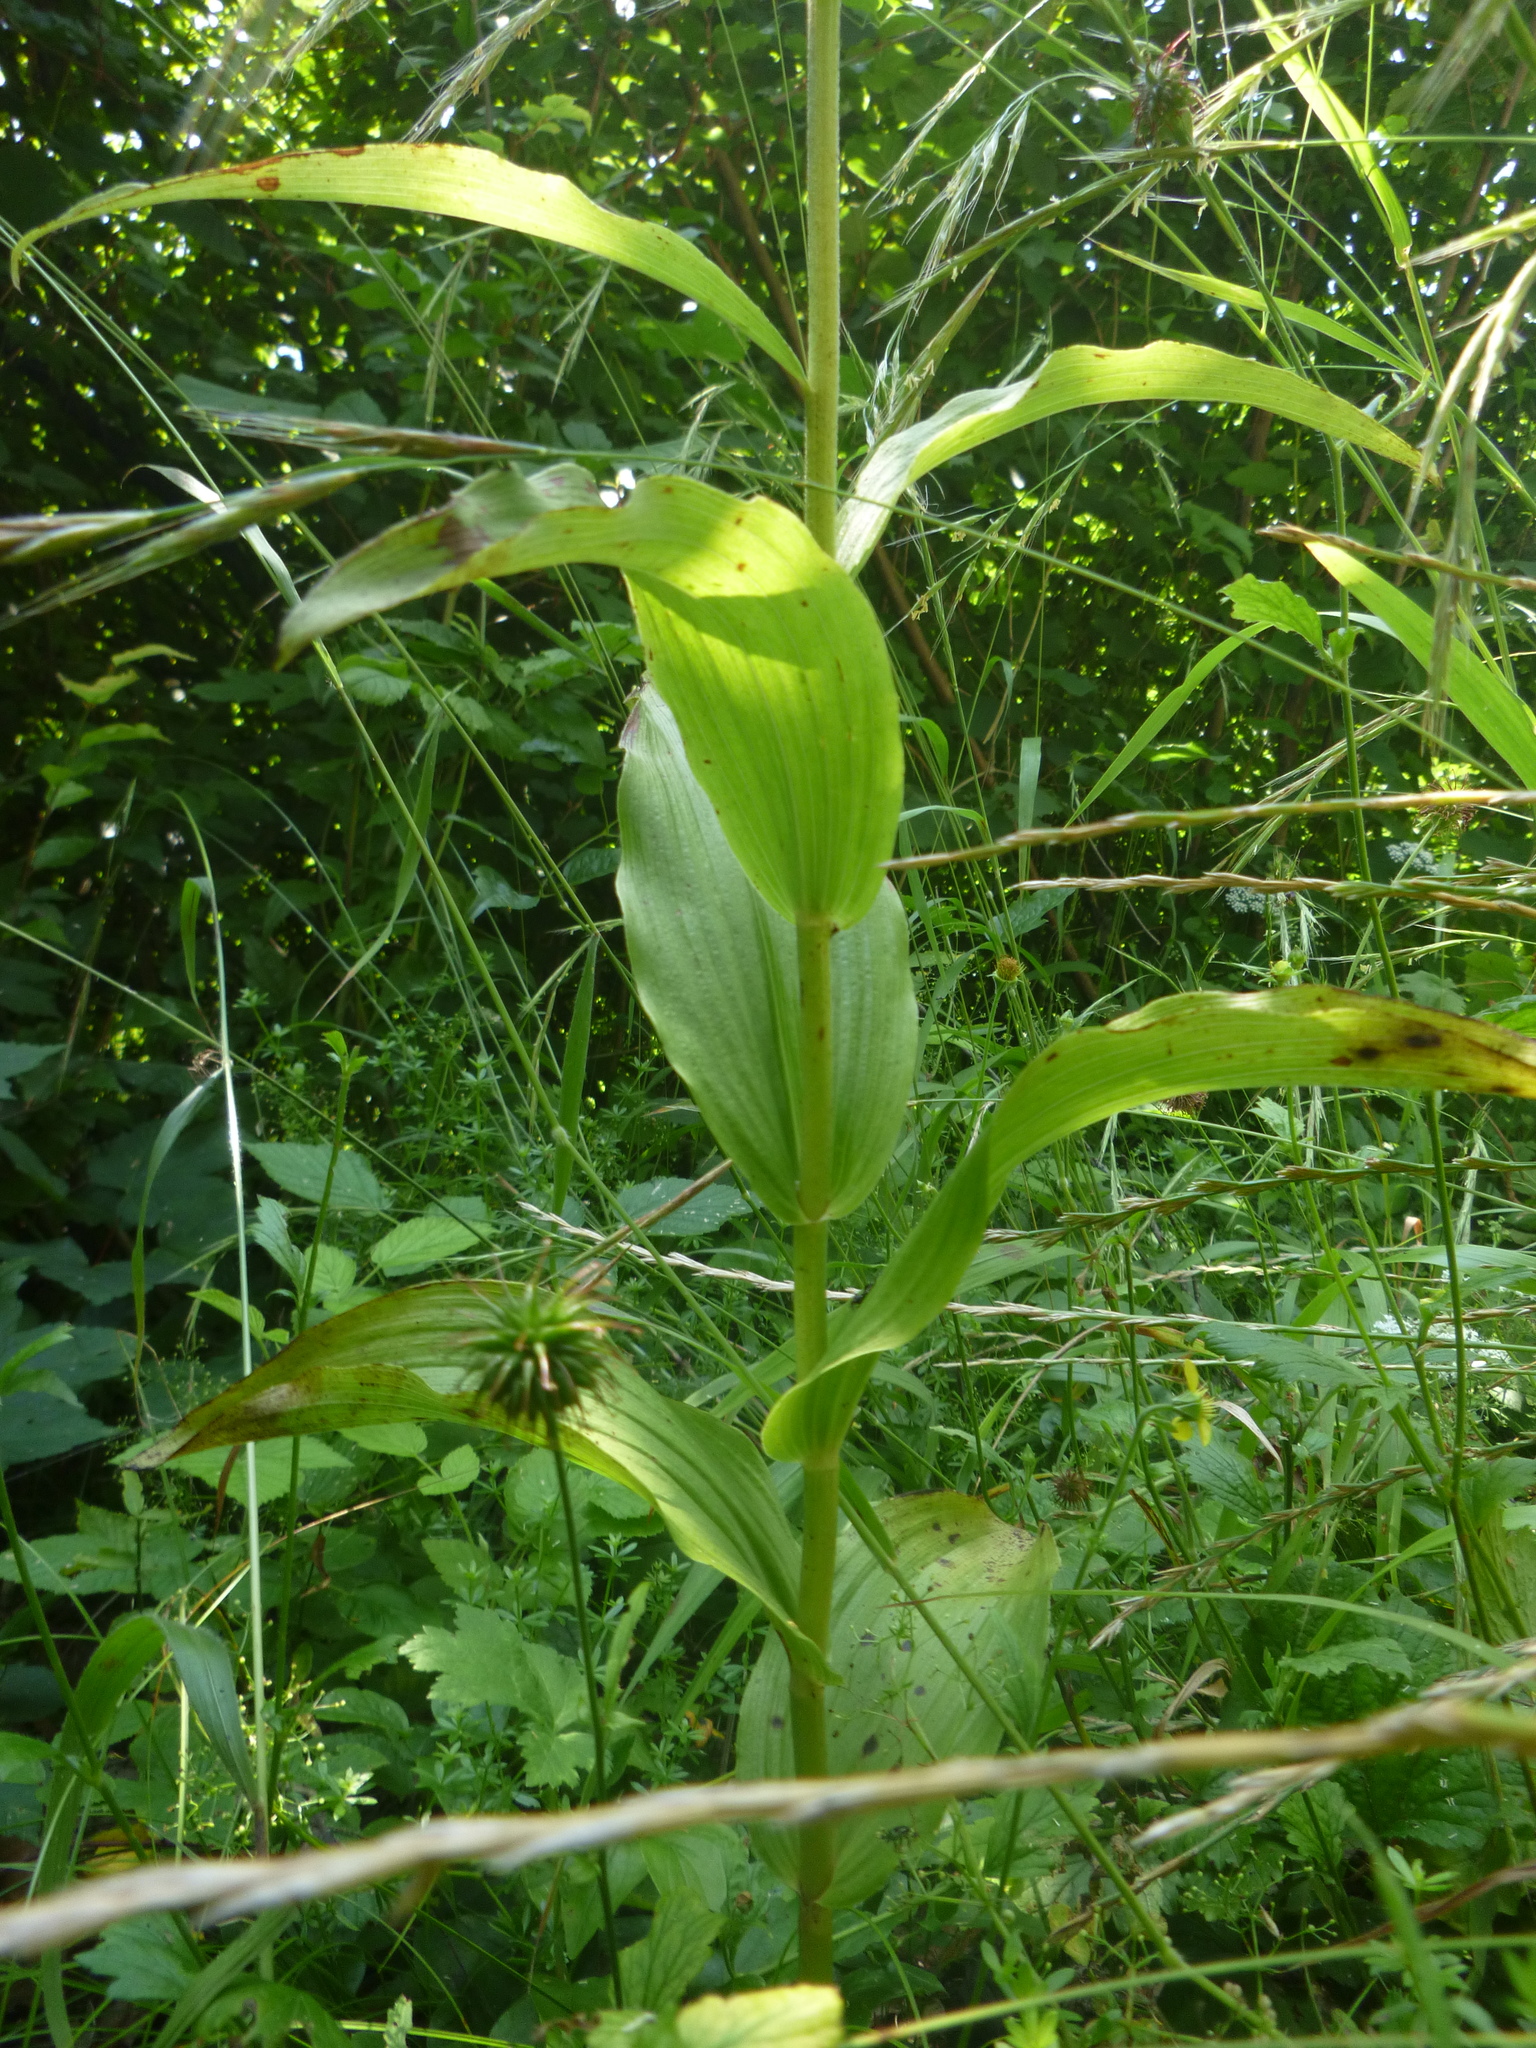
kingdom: Plantae
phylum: Tracheophyta
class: Liliopsida
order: Asparagales
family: Orchidaceae
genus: Epipactis
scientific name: Epipactis helleborine
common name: Broad-leaved helleborine
